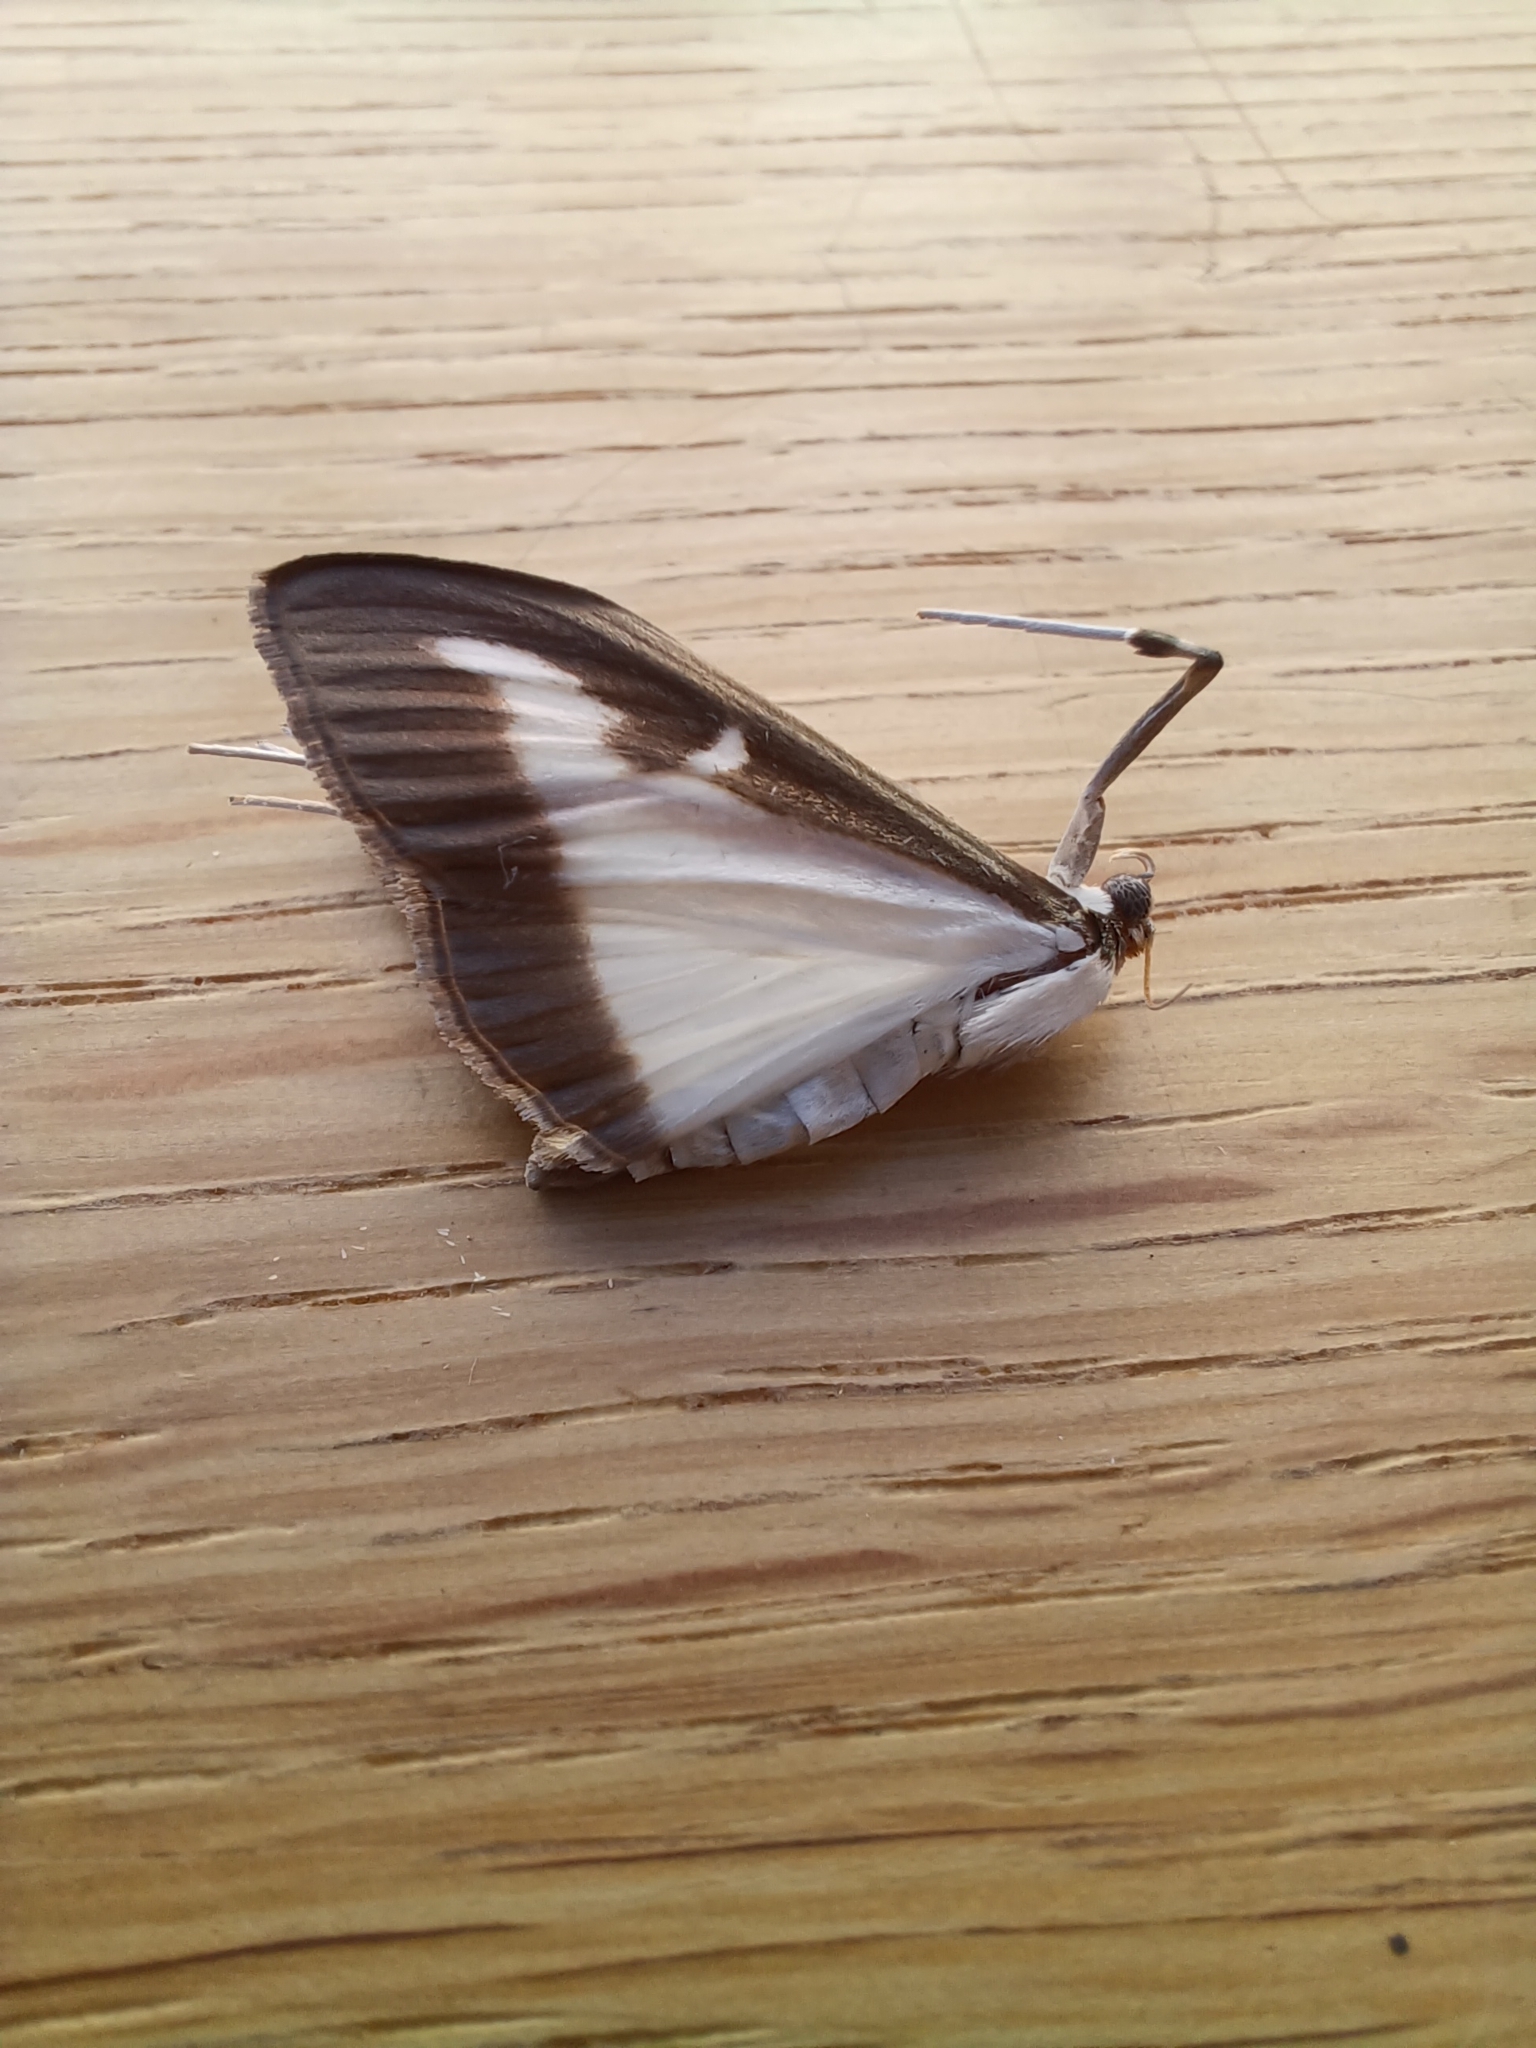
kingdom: Animalia
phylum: Arthropoda
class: Insecta
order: Lepidoptera
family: Crambidae
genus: Cydalima
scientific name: Cydalima perspectalis
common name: Box tree moth
